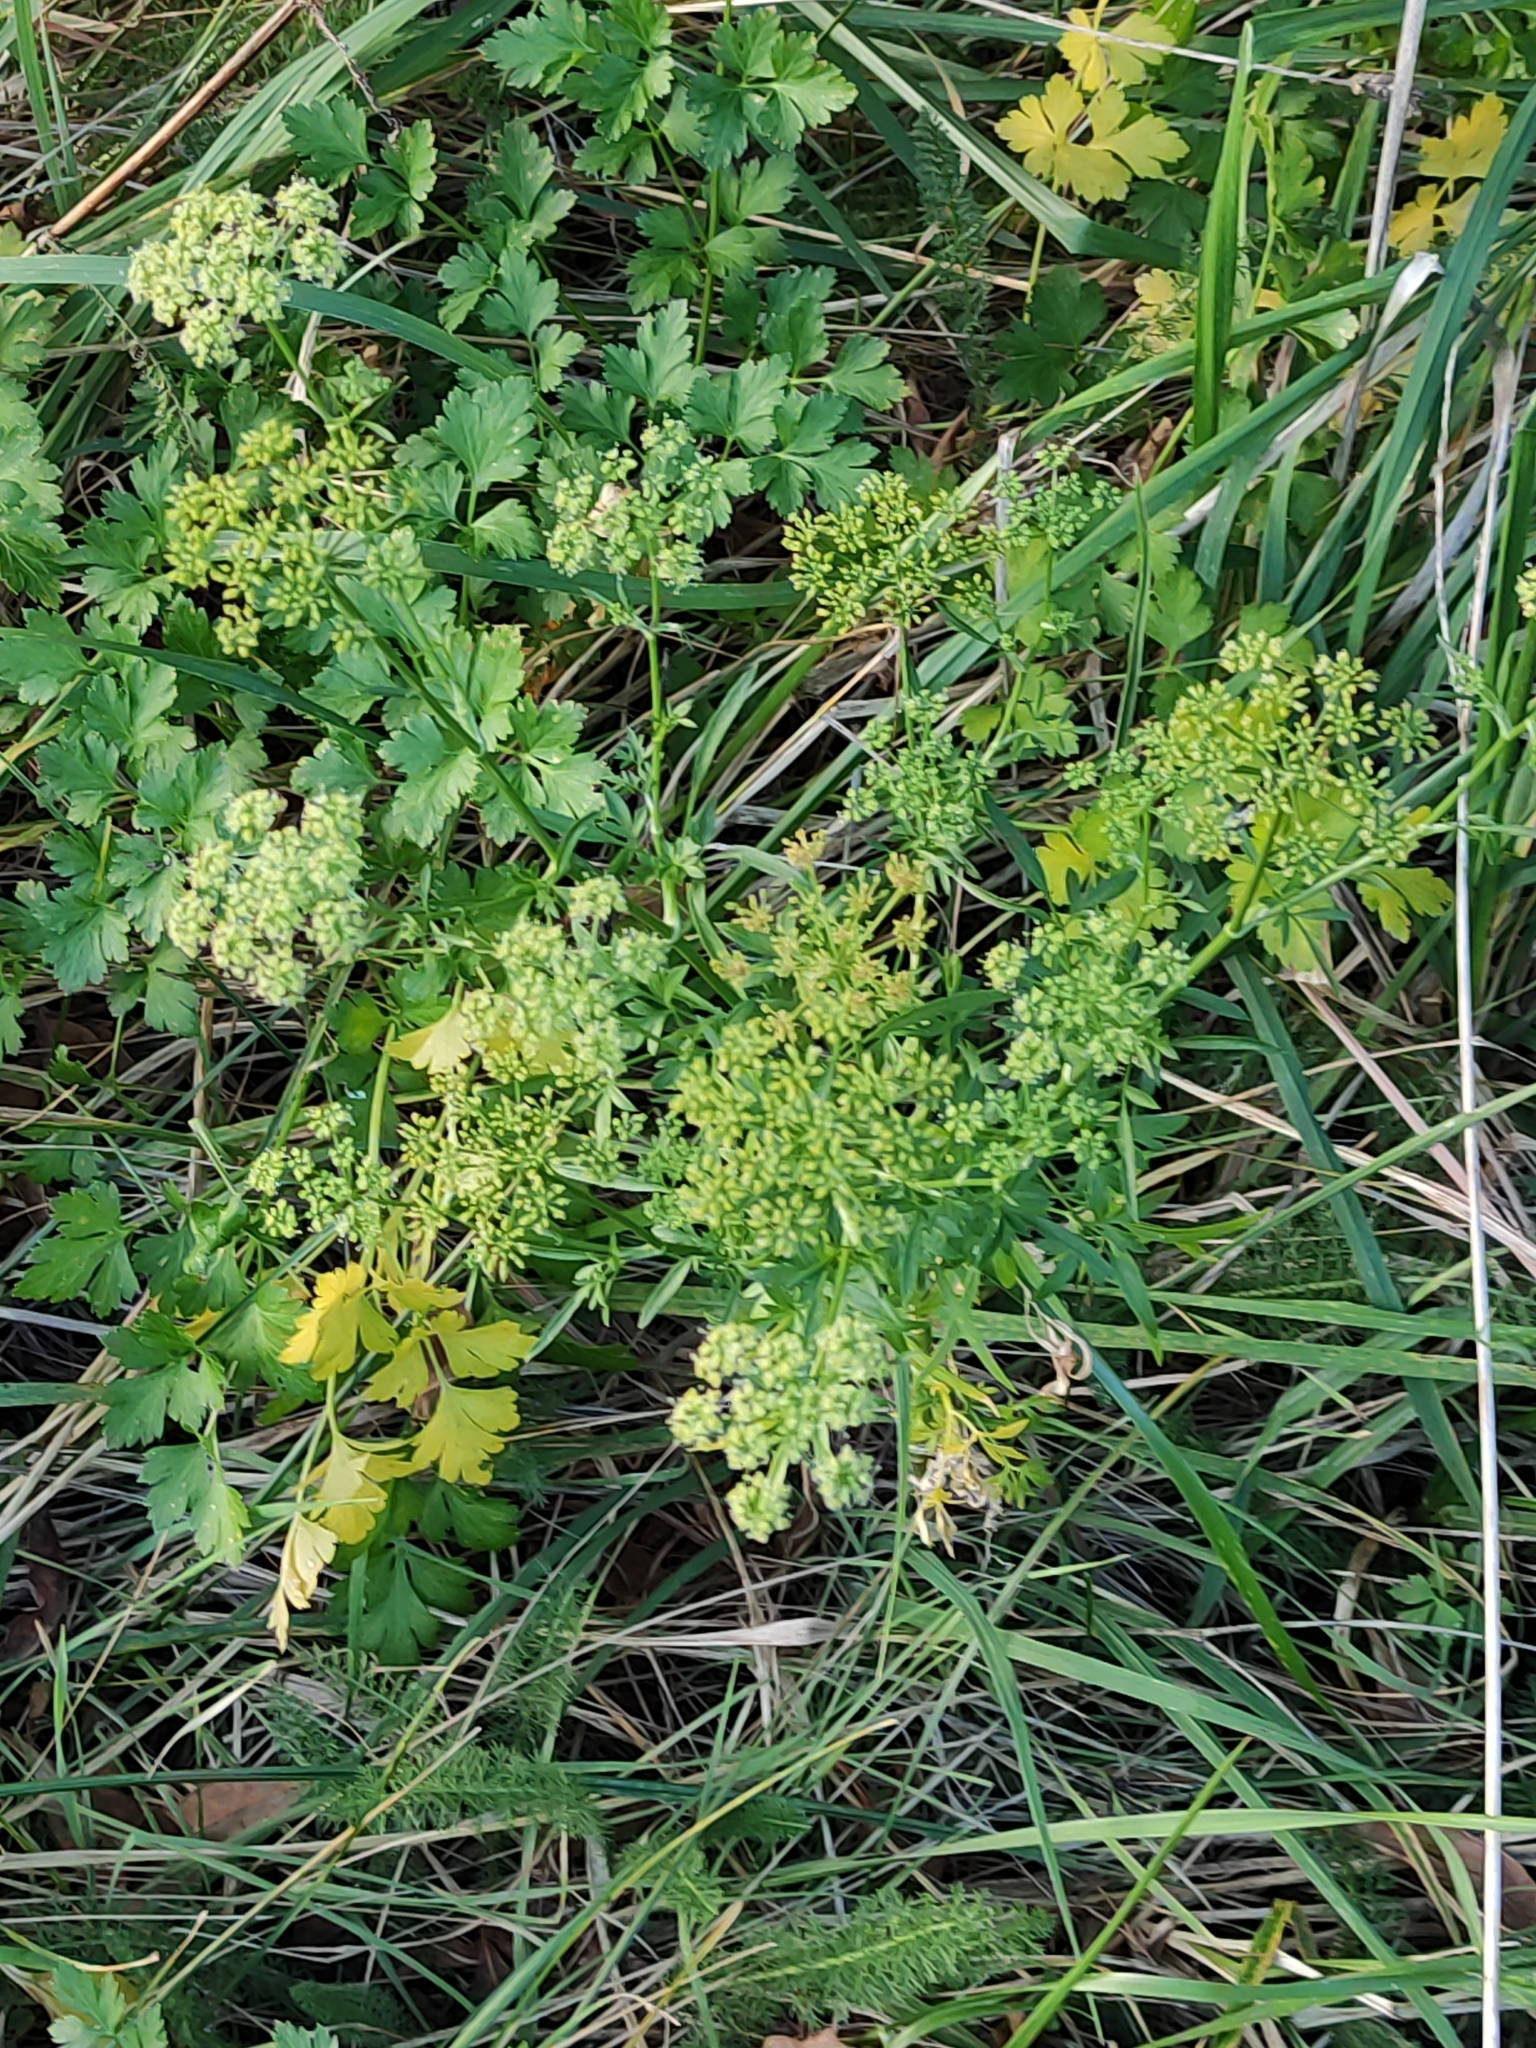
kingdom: Plantae
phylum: Tracheophyta
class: Magnoliopsida
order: Apiales
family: Apiaceae
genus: Petroselinum
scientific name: Petroselinum crispum
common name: Parsley
